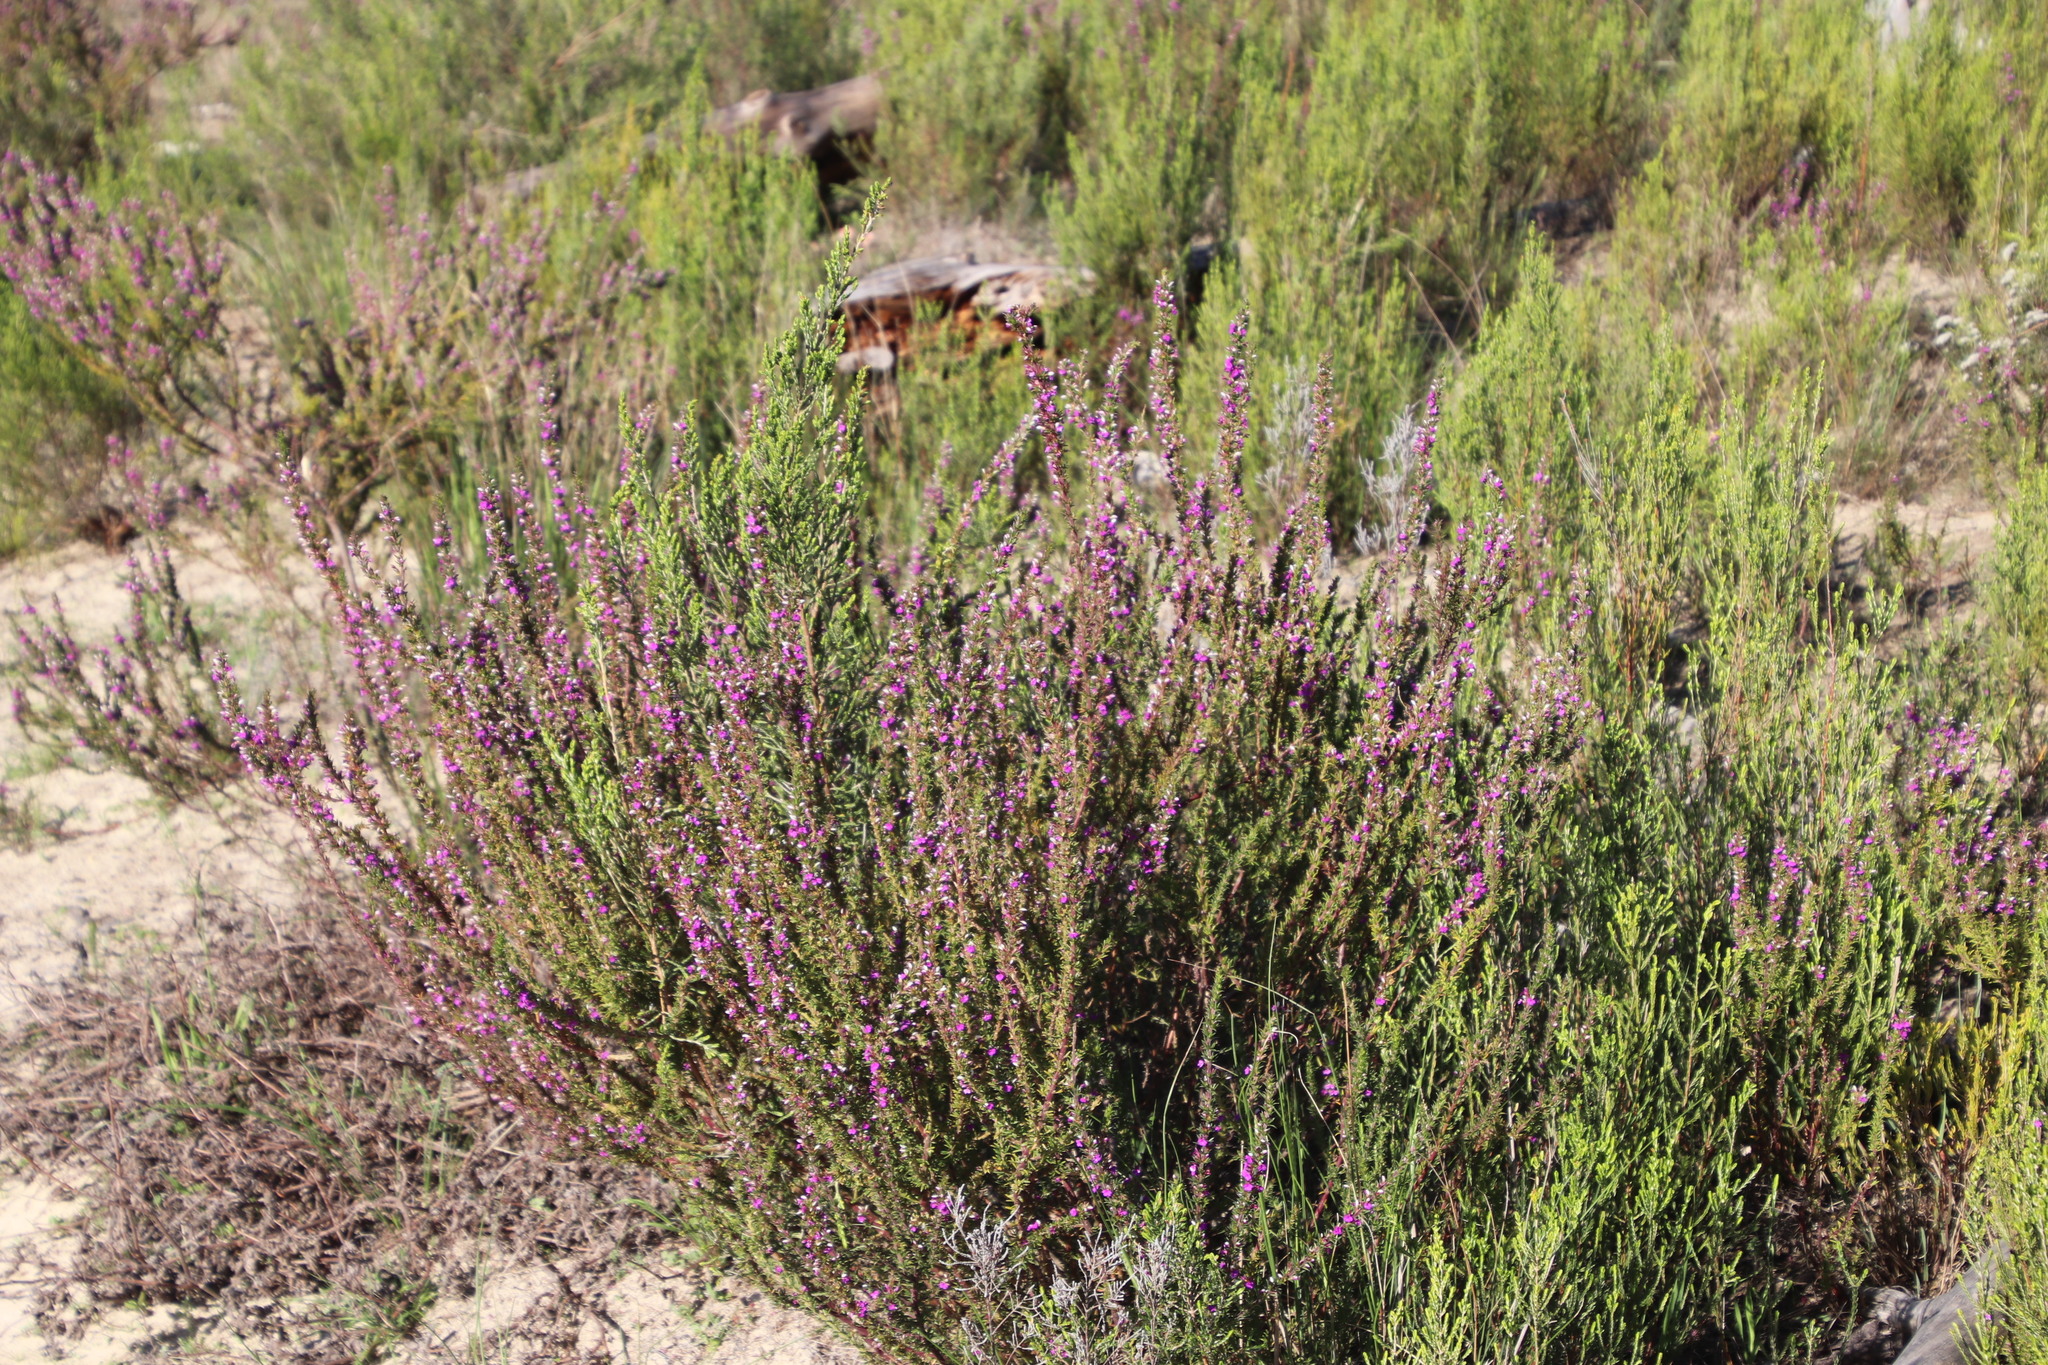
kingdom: Plantae
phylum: Tracheophyta
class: Magnoliopsida
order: Fabales
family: Polygalaceae
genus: Muraltia
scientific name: Muraltia heisteria
